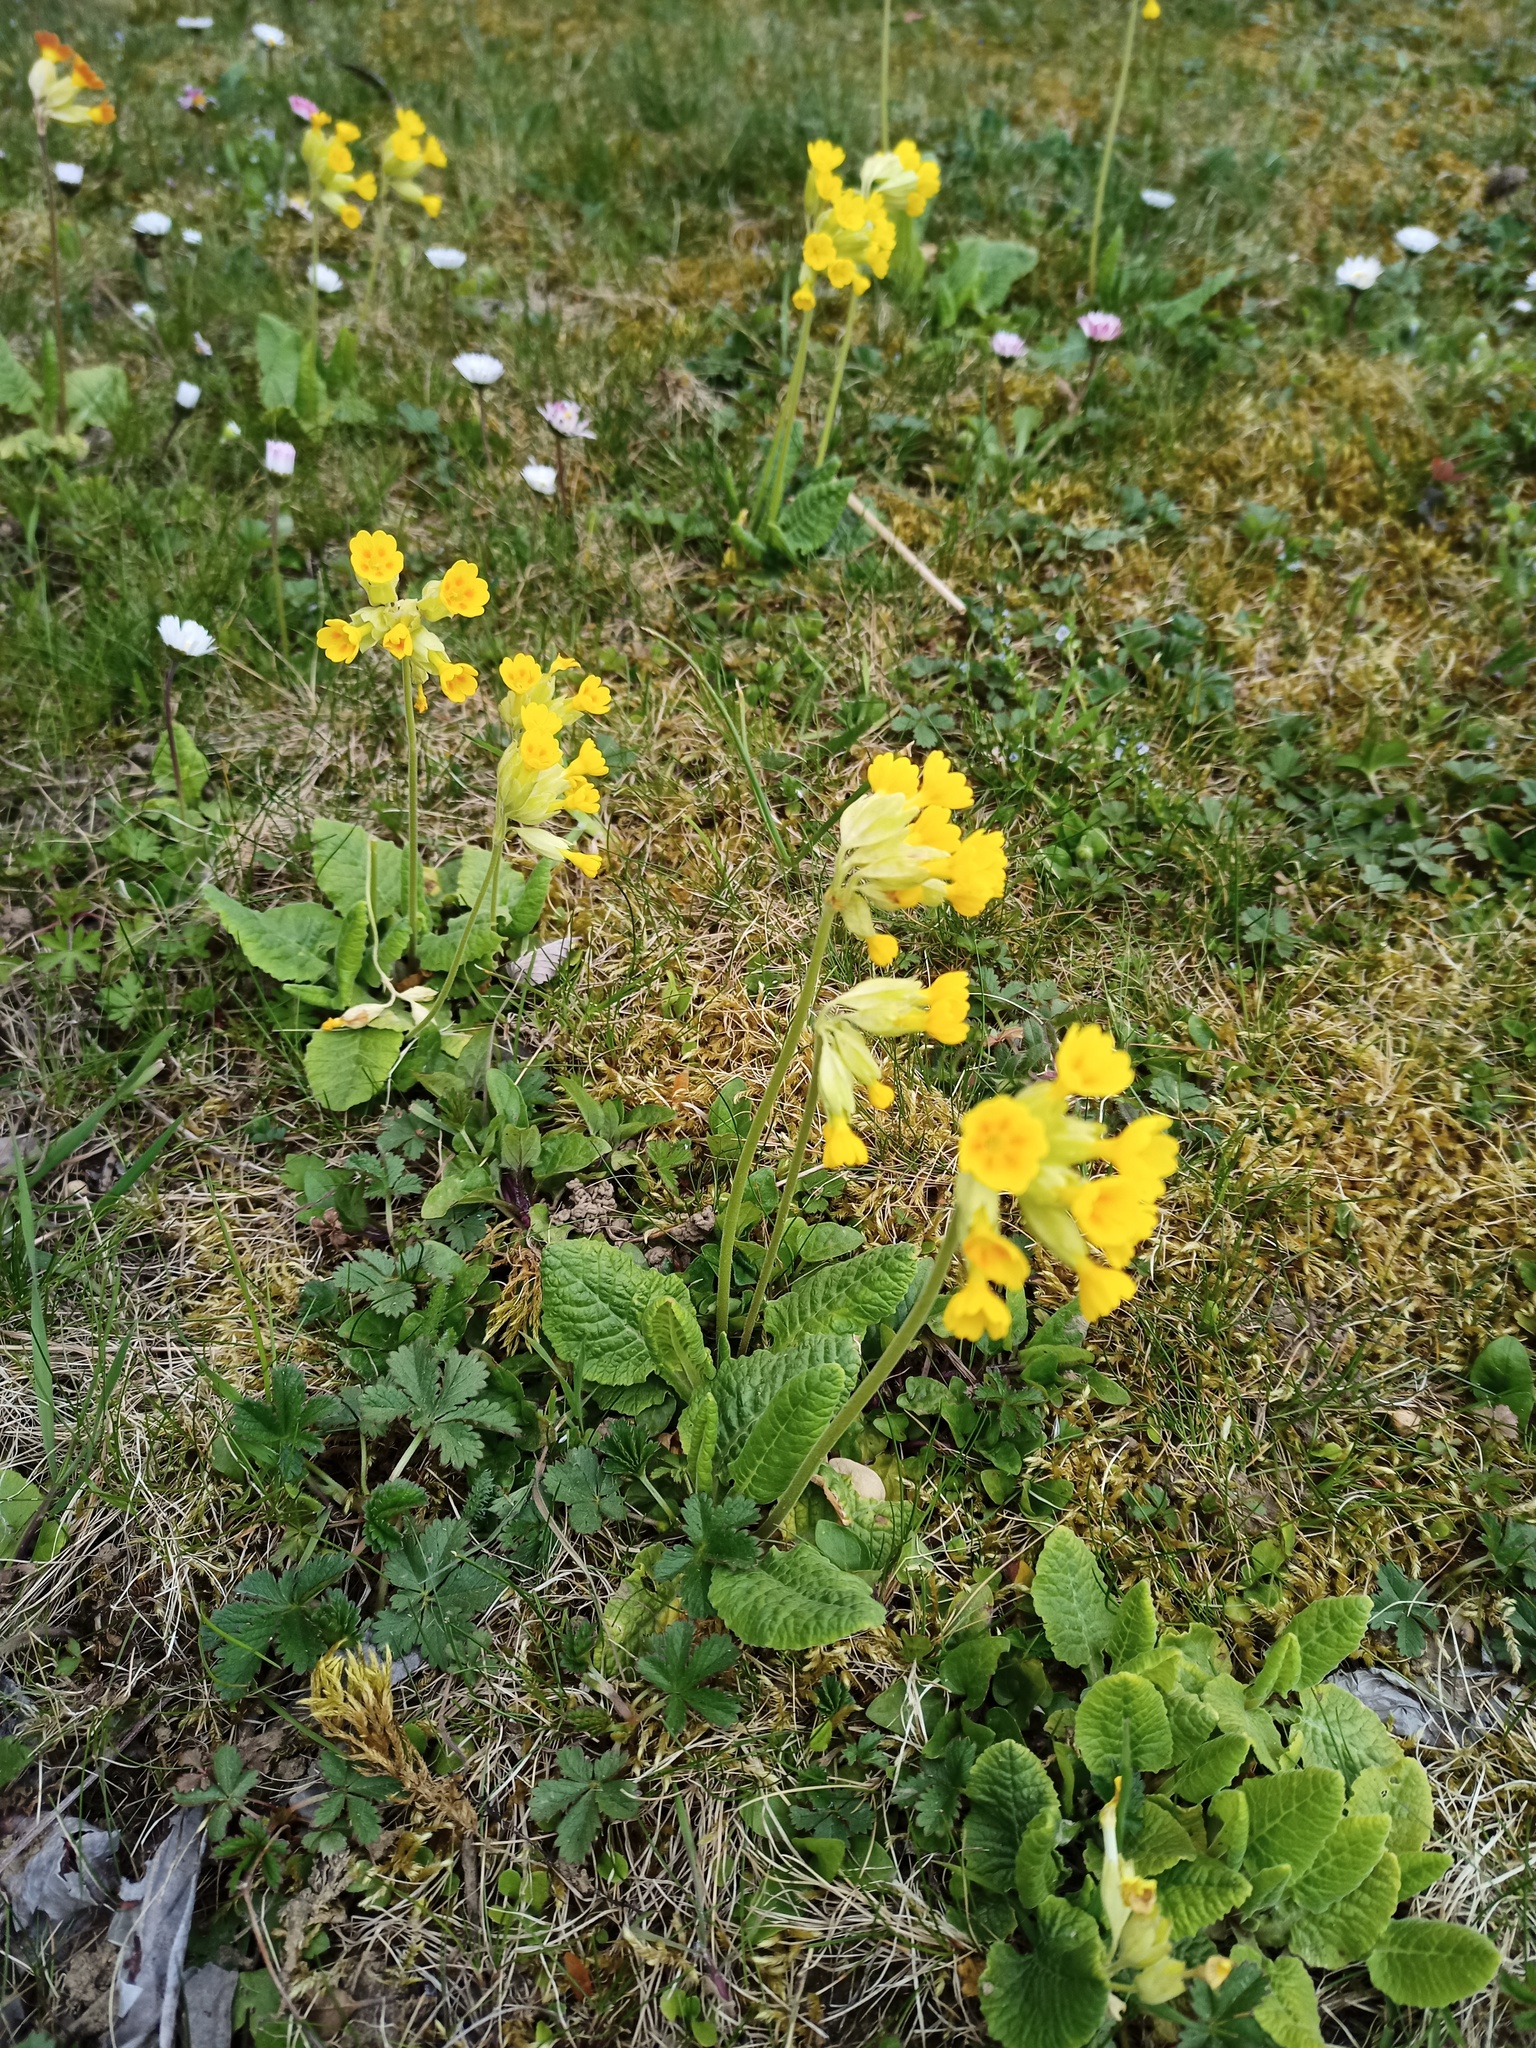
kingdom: Plantae
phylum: Tracheophyta
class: Magnoliopsida
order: Ericales
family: Primulaceae
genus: Primula
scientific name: Primula veris
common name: Cowslip
